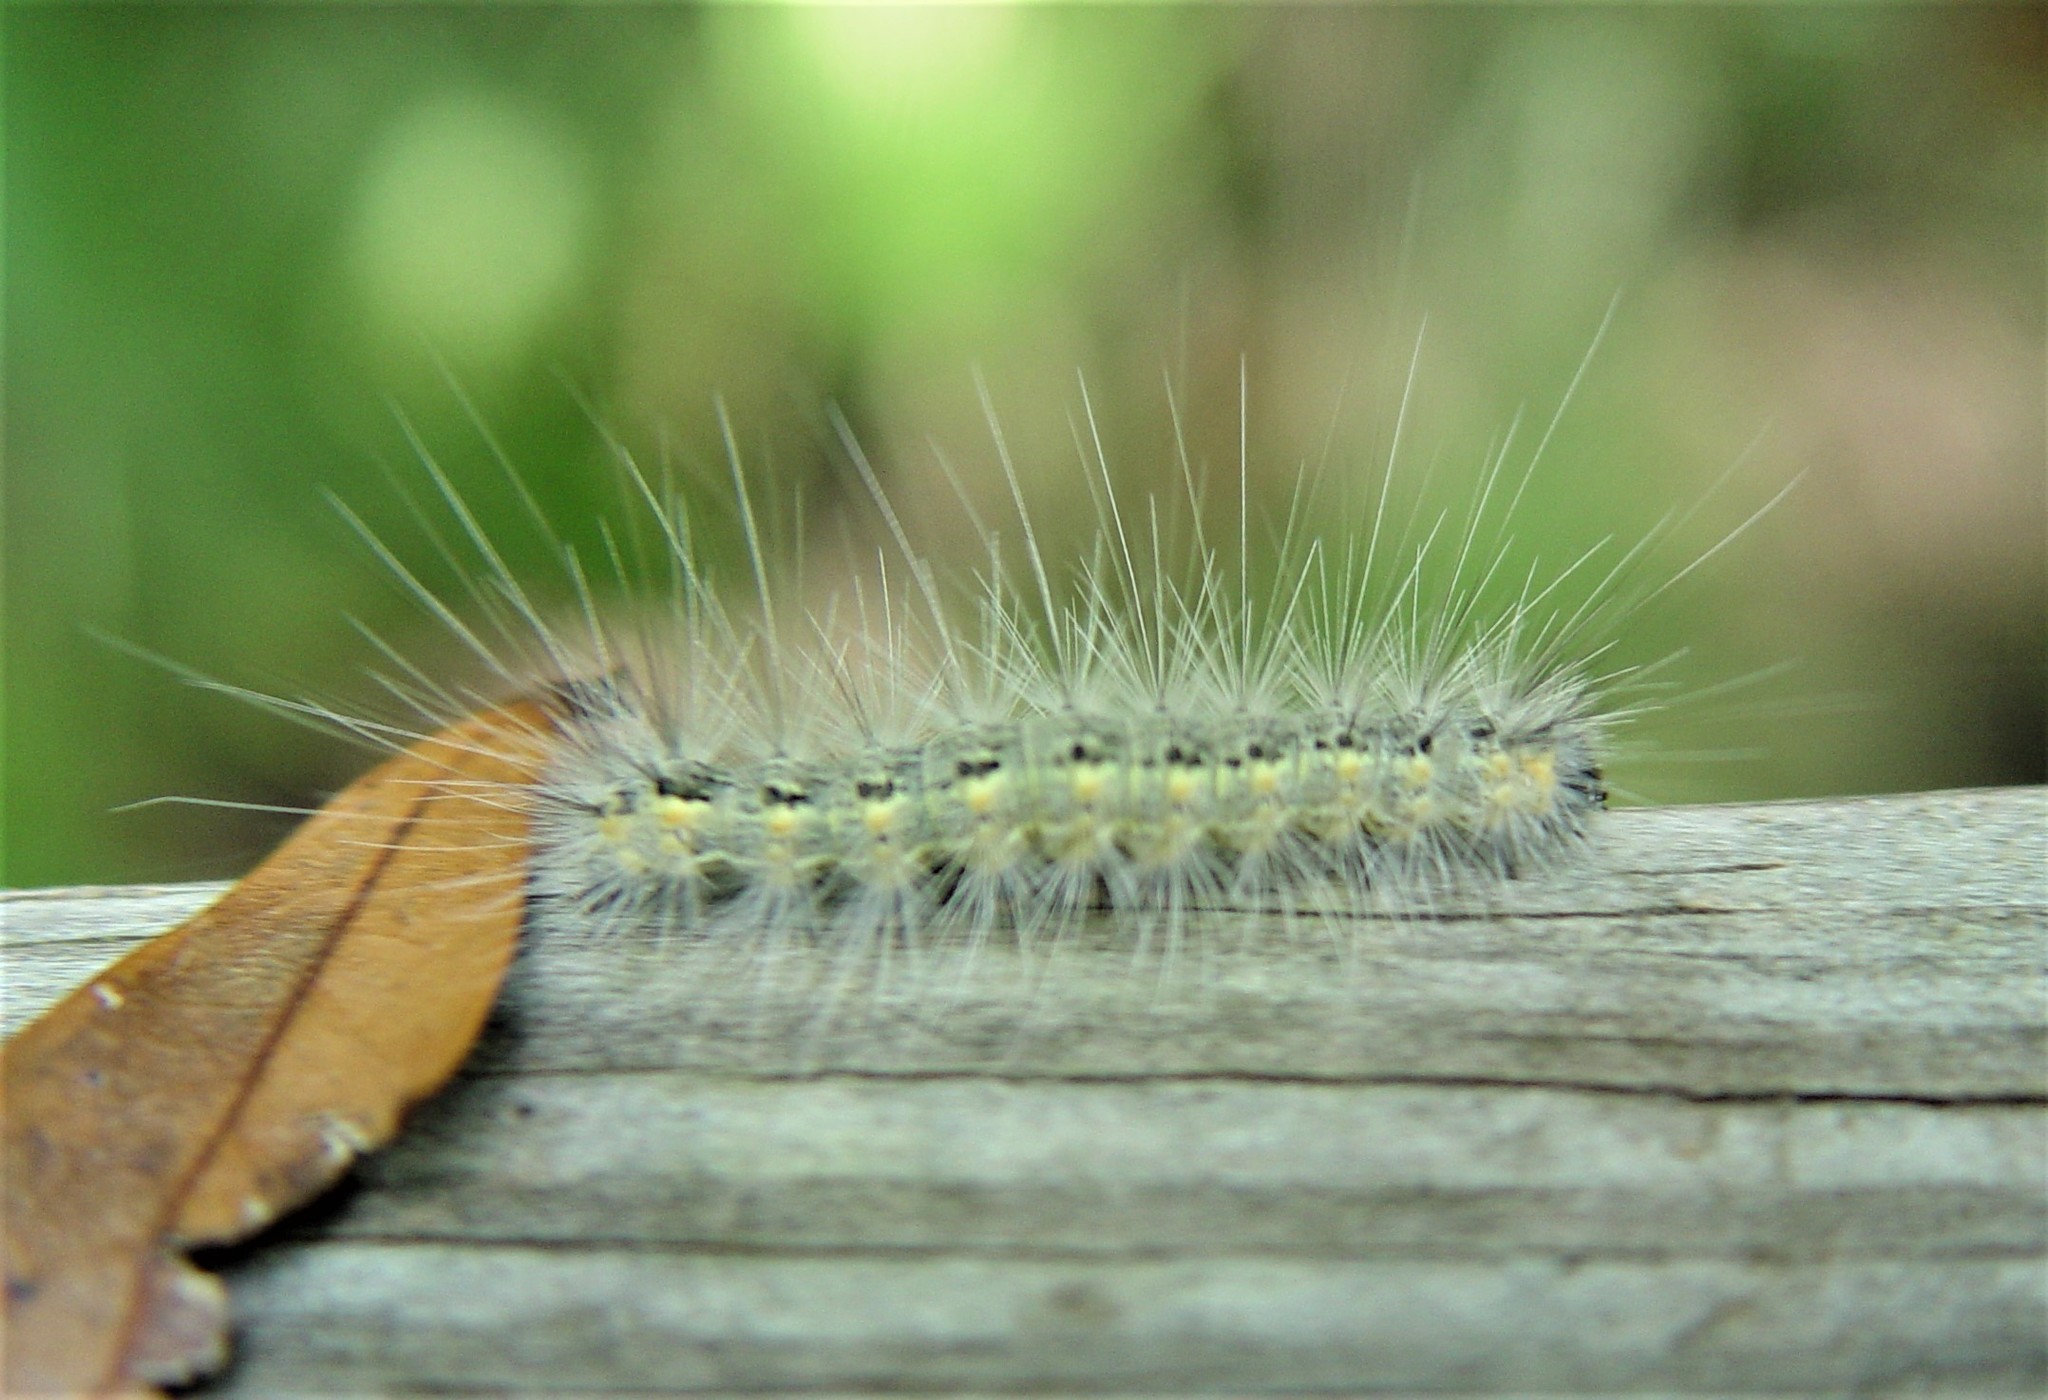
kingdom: Animalia
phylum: Arthropoda
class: Insecta
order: Lepidoptera
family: Erebidae
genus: Hyphantria
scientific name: Hyphantria cunea
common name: American white moth
